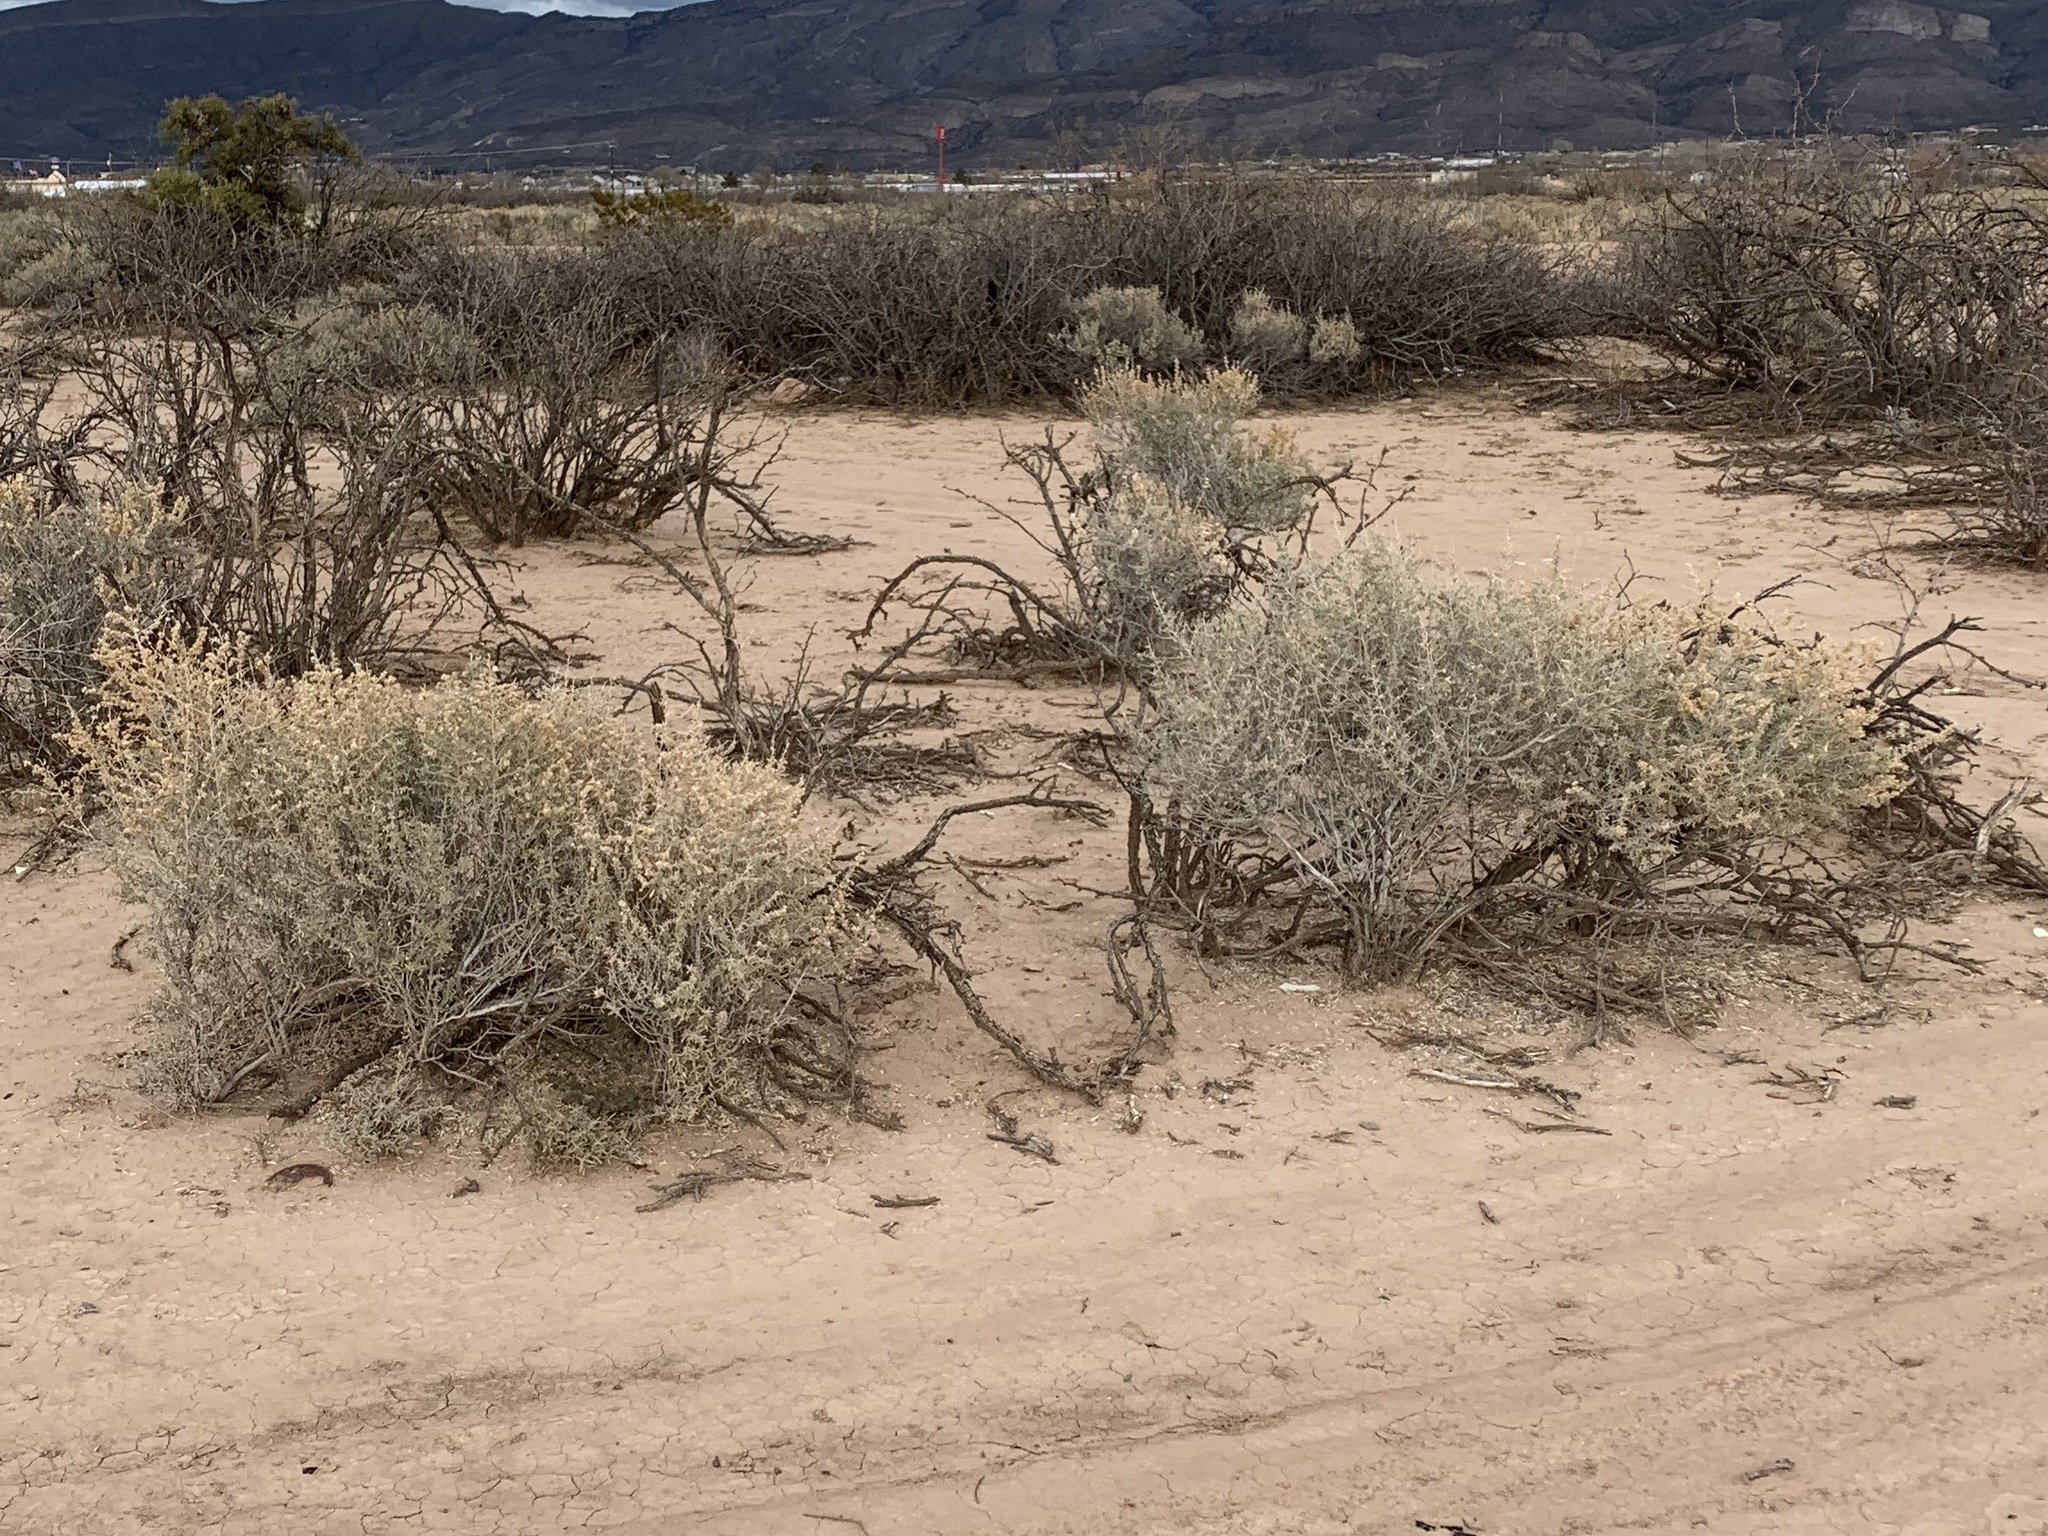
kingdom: Plantae
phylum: Tracheophyta
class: Magnoliopsida
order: Caryophyllales
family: Amaranthaceae
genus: Atriplex
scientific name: Atriplex canescens
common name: Four-wing saltbush
